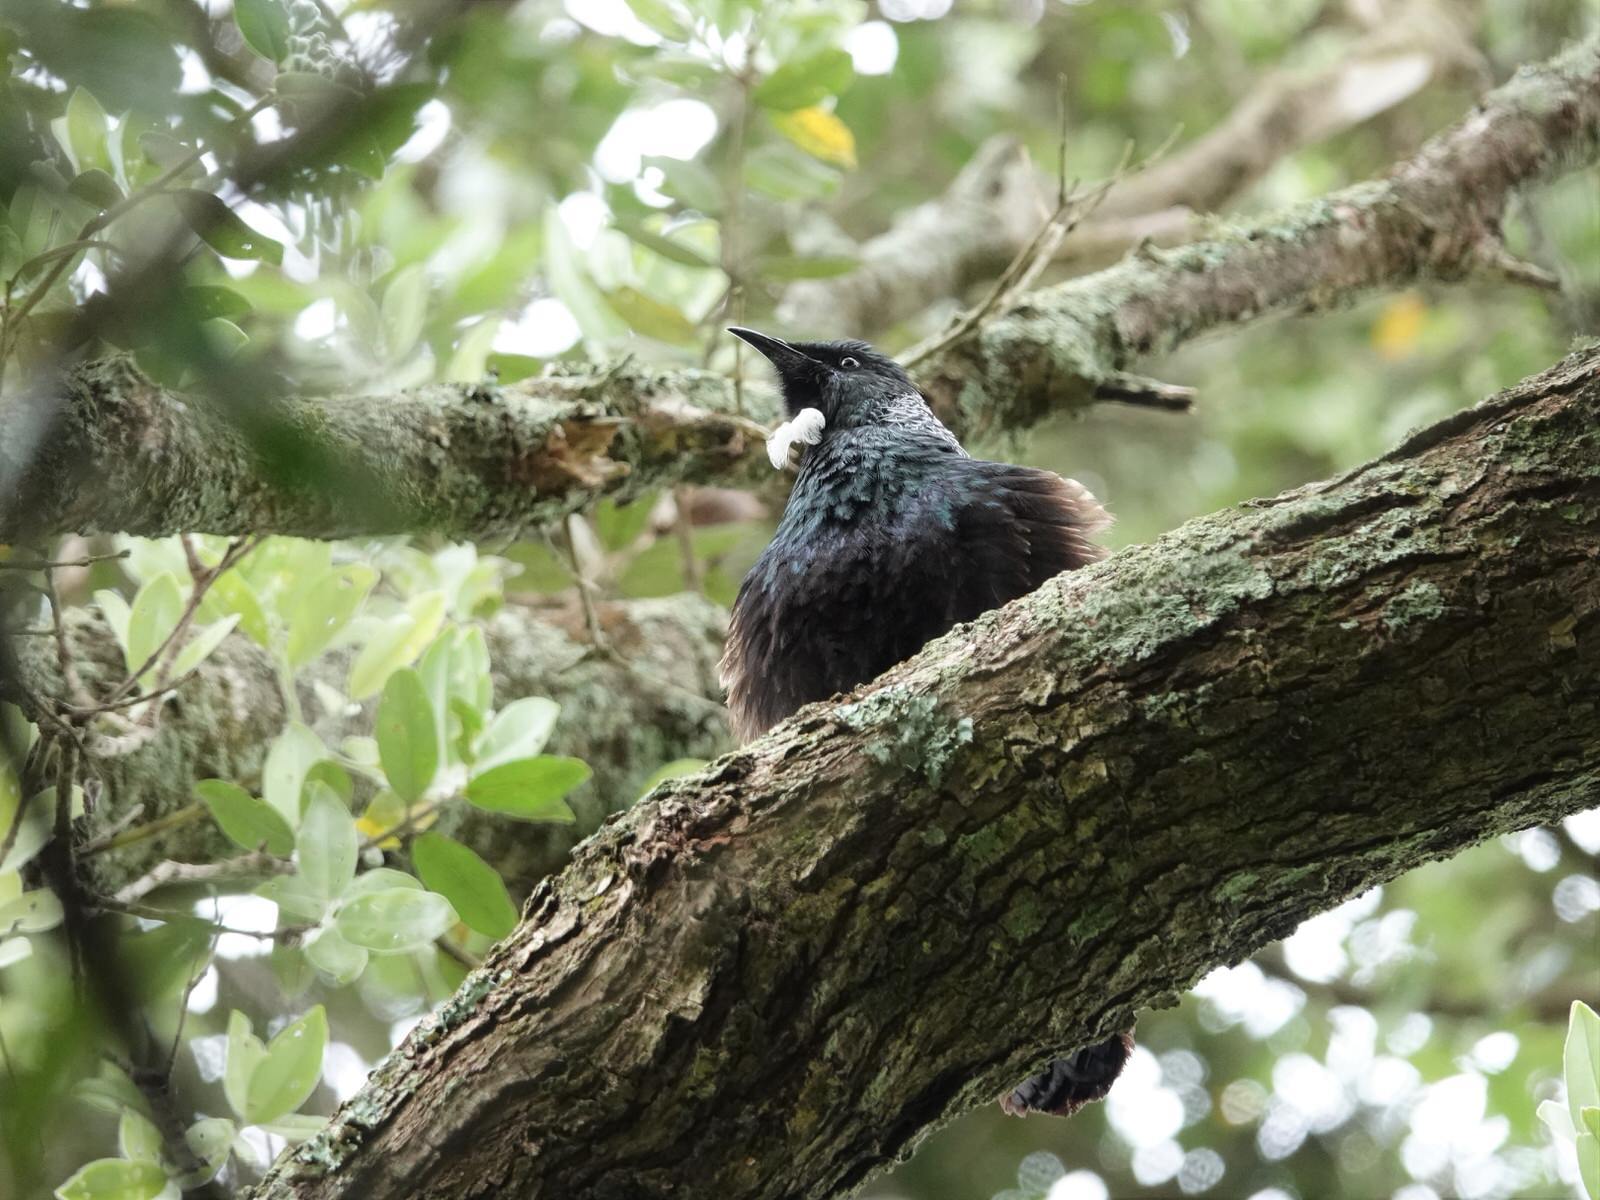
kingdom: Animalia
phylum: Chordata
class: Aves
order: Passeriformes
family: Meliphagidae
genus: Prosthemadera
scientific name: Prosthemadera novaeseelandiae
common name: Tui
